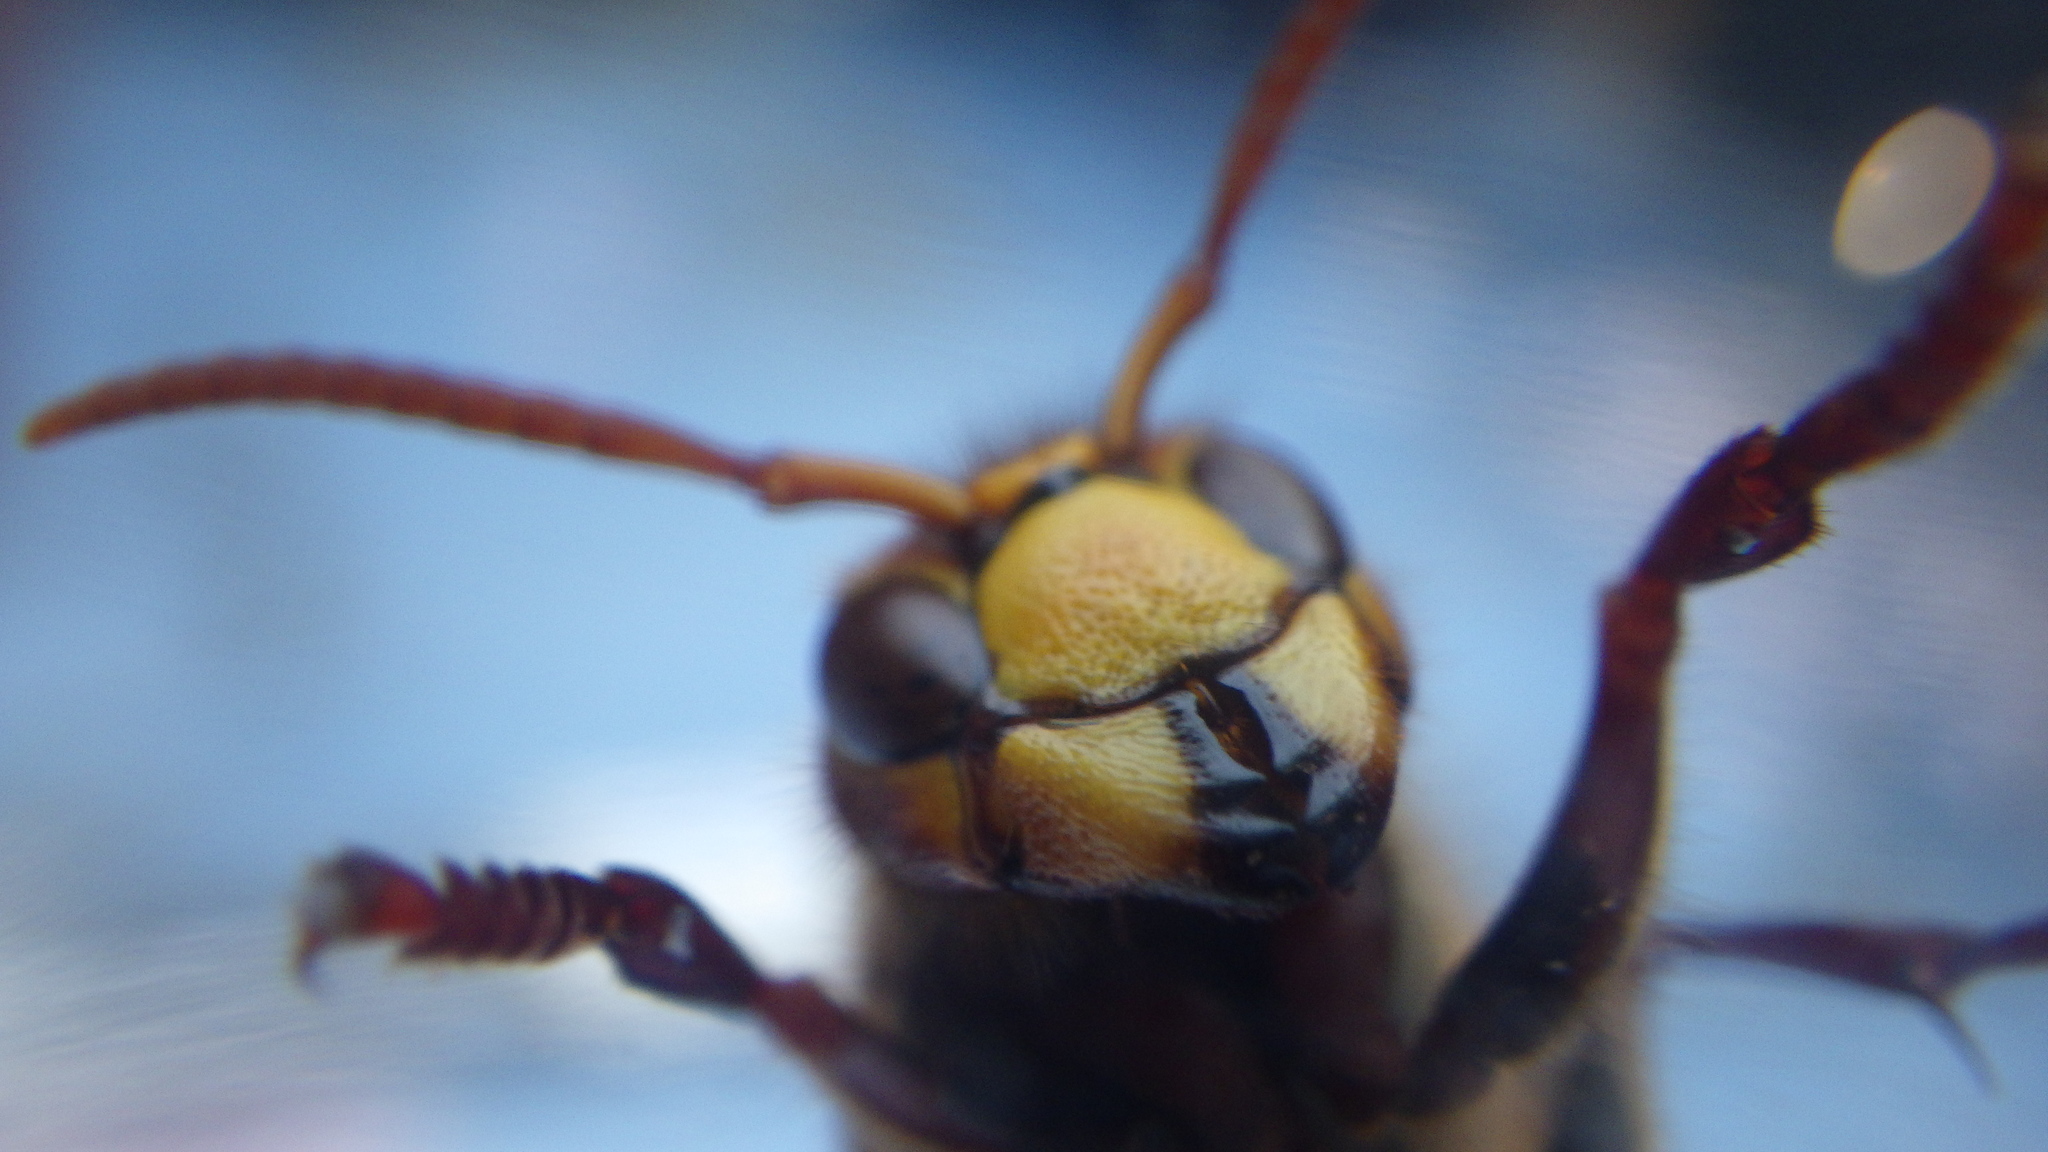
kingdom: Animalia
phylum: Arthropoda
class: Insecta
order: Hymenoptera
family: Vespidae
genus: Vespa
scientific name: Vespa crabro
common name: Hornet
